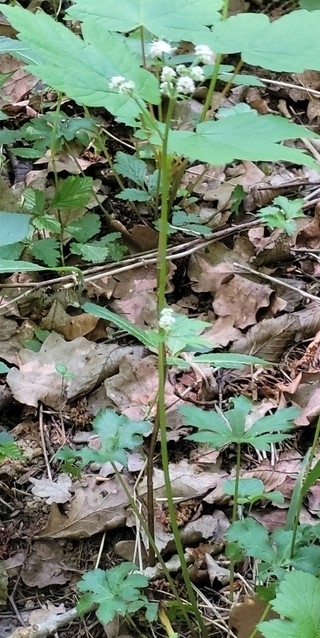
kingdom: Plantae
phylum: Tracheophyta
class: Magnoliopsida
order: Apiales
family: Apiaceae
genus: Sanicula
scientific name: Sanicula europaea
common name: Sanicle
